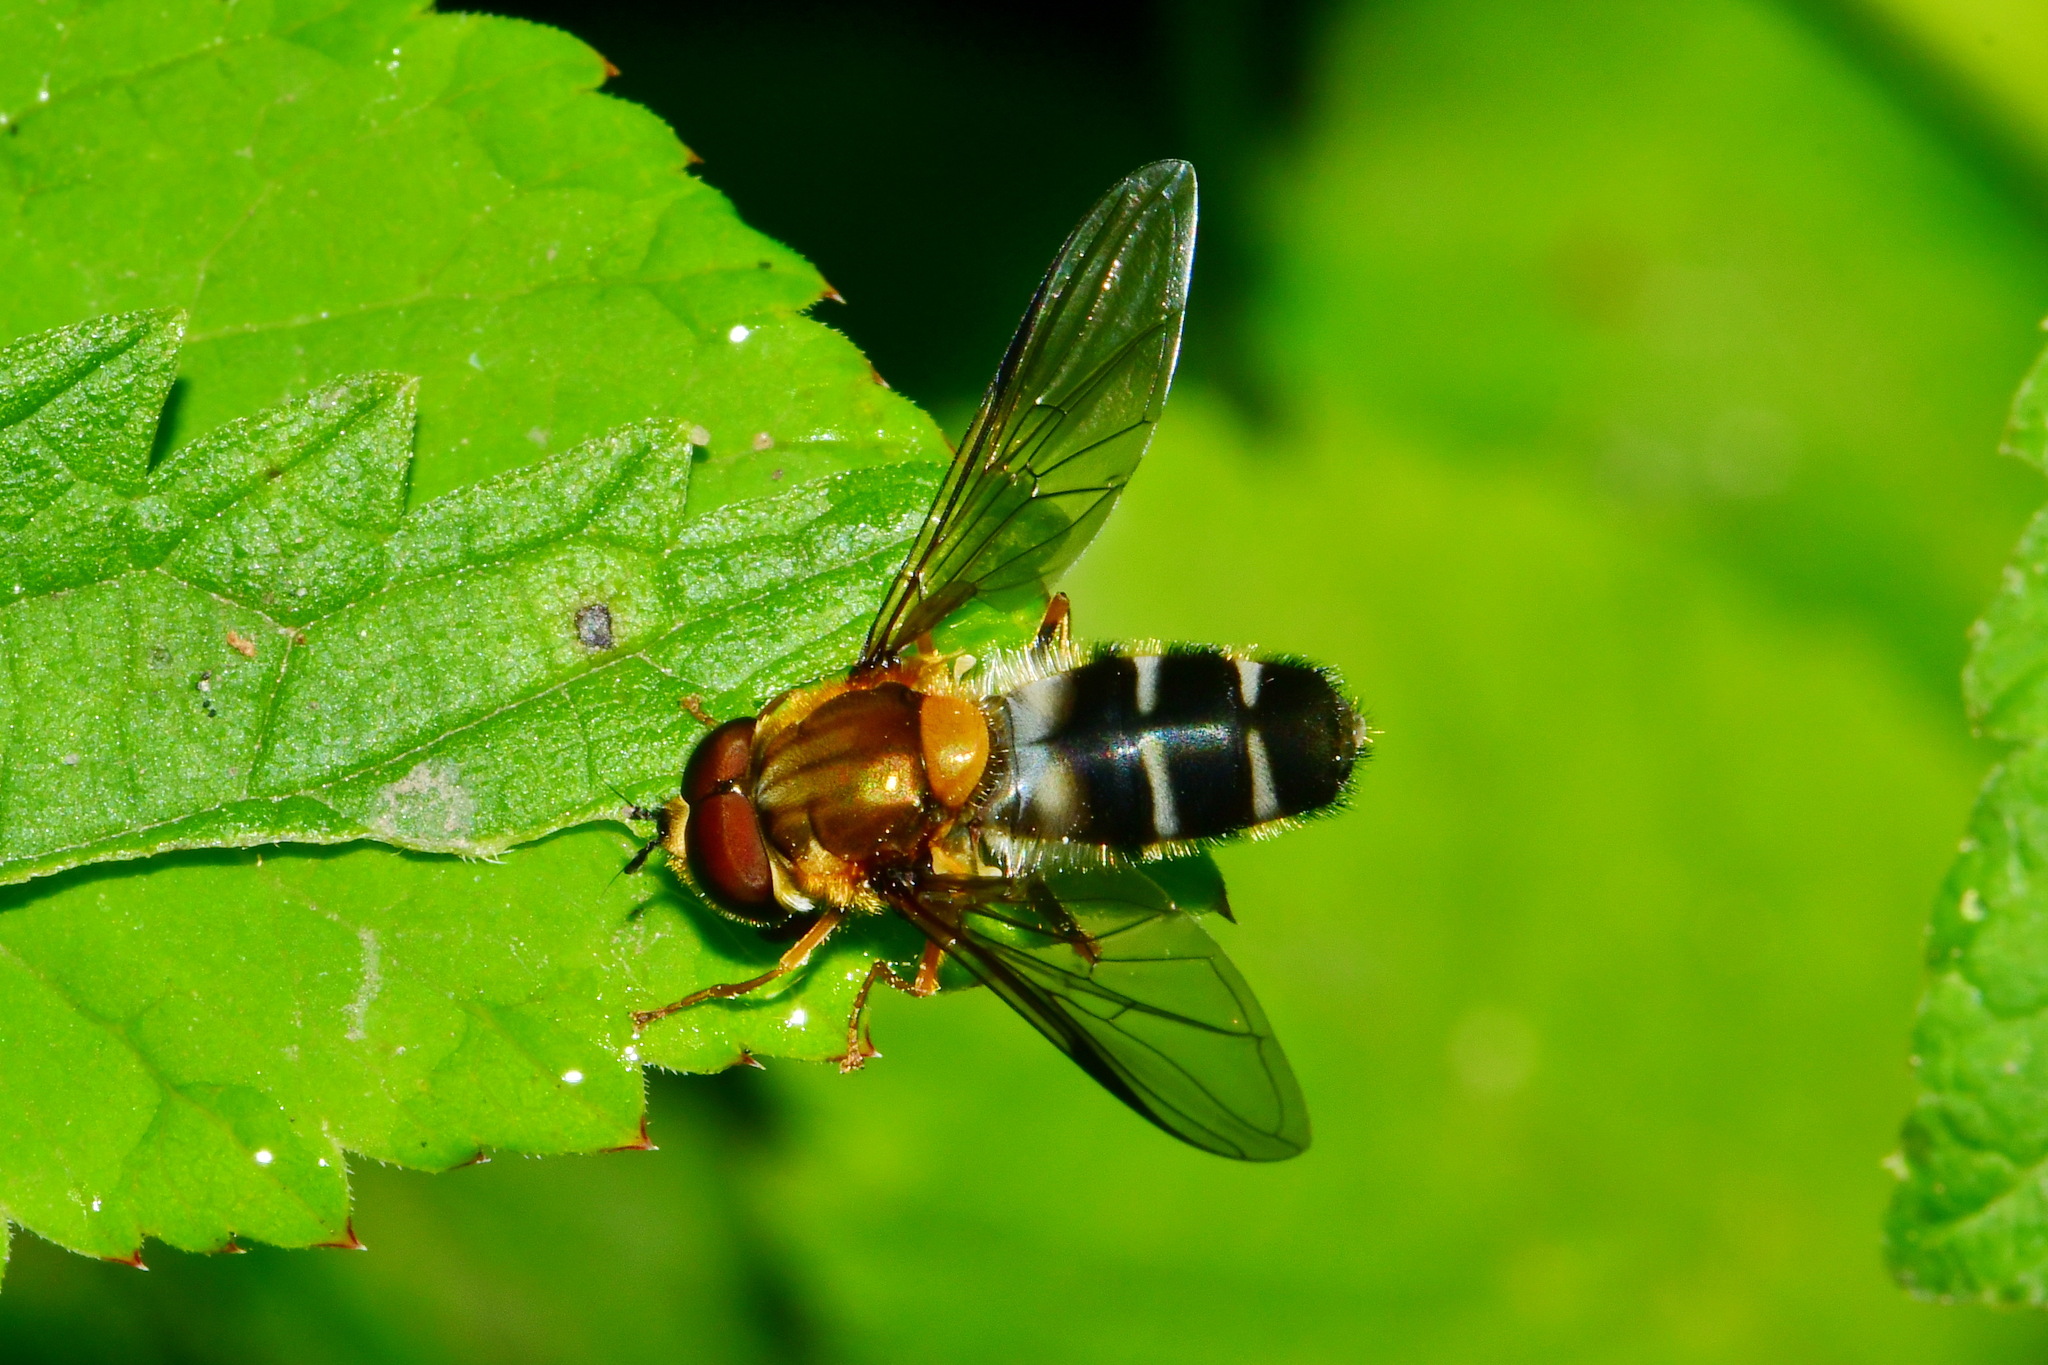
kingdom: Animalia
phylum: Arthropoda
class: Insecta
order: Diptera
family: Syrphidae
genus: Leucozona
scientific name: Leucozona glaucia
